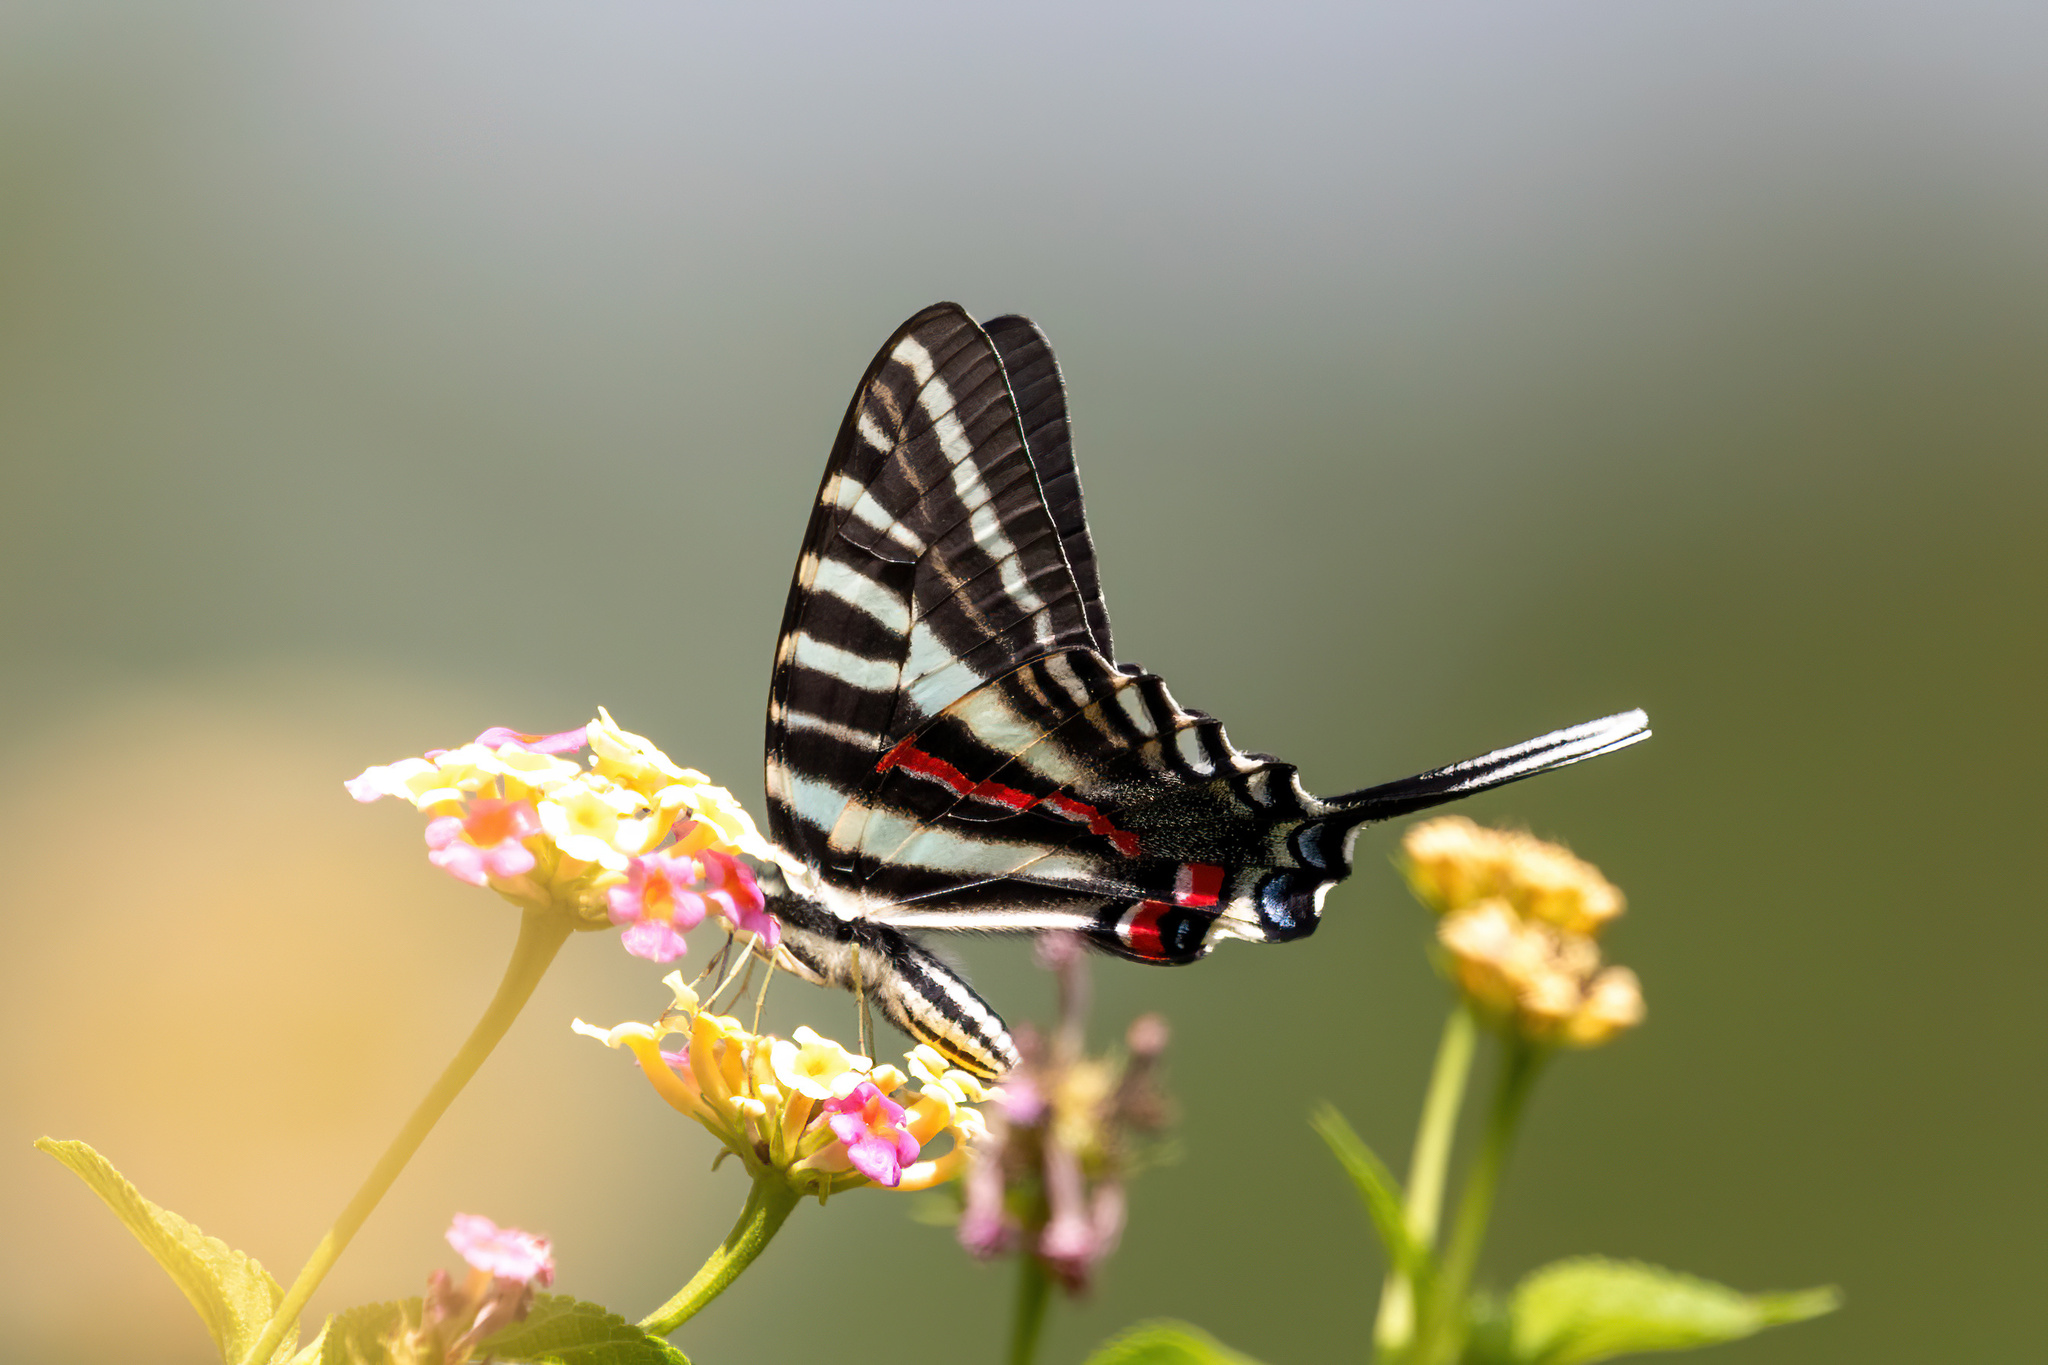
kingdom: Animalia
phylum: Arthropoda
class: Insecta
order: Lepidoptera
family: Papilionidae
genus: Protographium
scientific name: Protographium marcellus
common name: Zebra swallowtail
